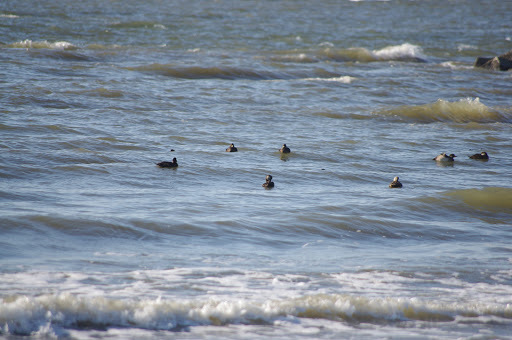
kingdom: Animalia
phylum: Chordata
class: Aves
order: Anseriformes
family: Anatidae
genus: Melanitta
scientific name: Melanitta americana
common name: Black scoter
